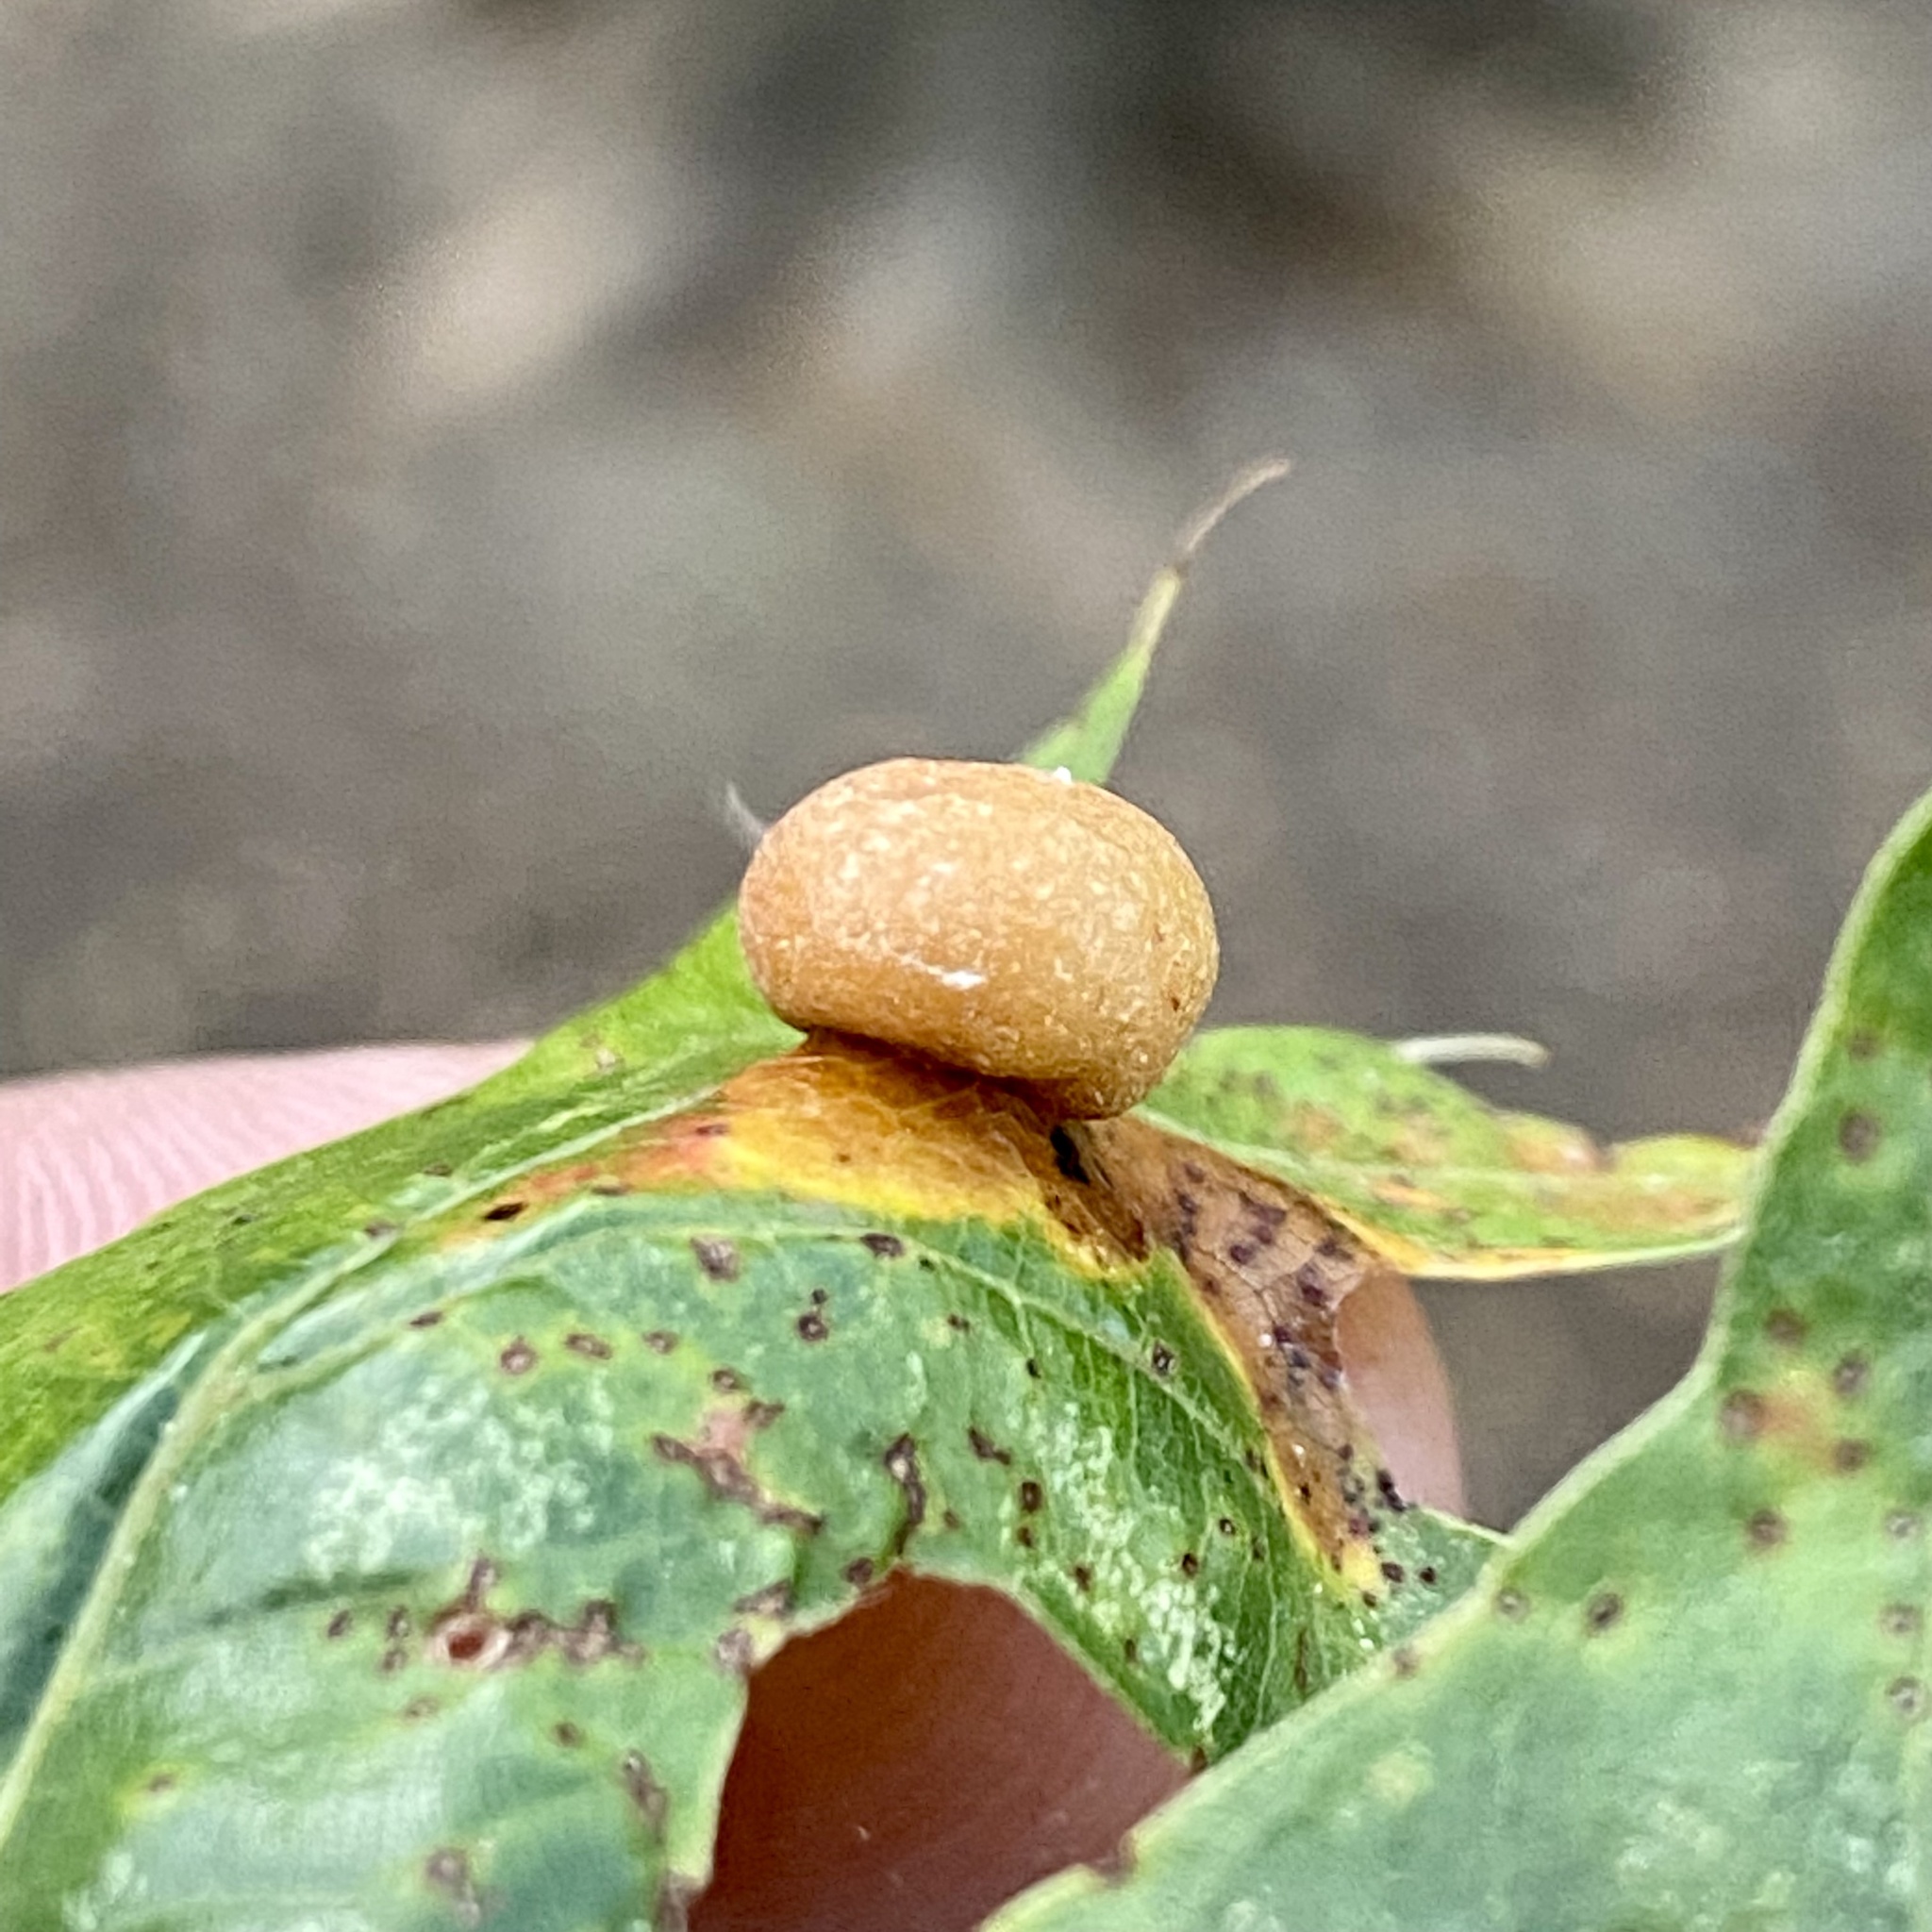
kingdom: Animalia
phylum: Arthropoda
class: Insecta
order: Diptera
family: Cecidomyiidae
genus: Polystepha
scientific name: Polystepha pilulae
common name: Oak leaf gall midge
